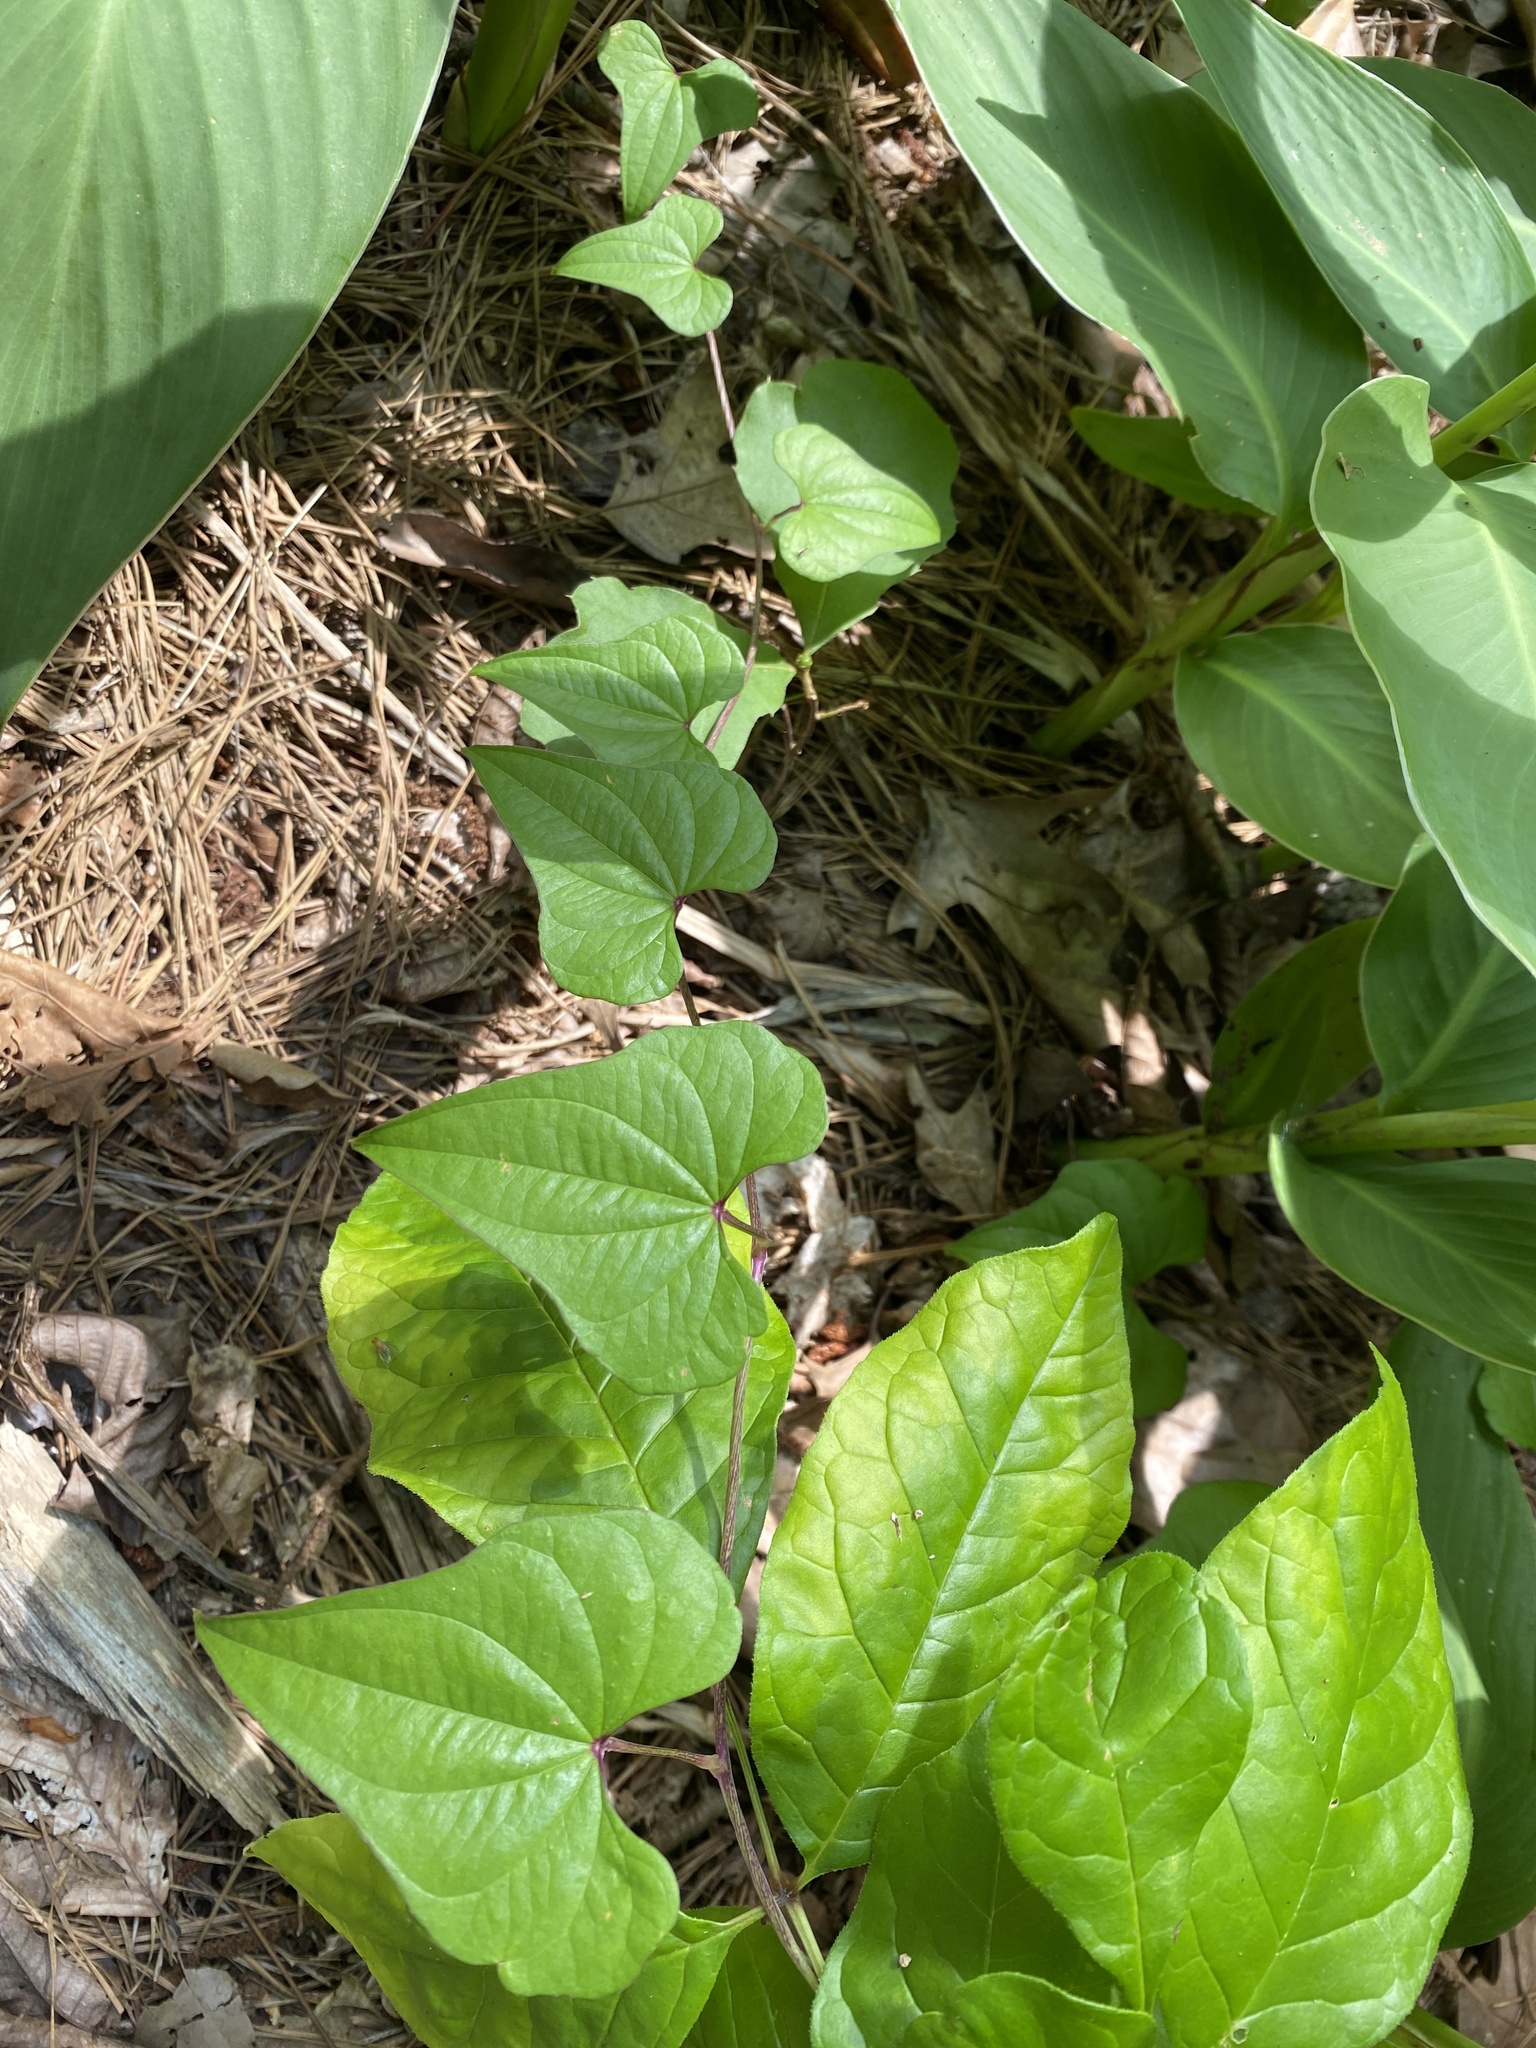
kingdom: Plantae
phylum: Tracheophyta
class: Liliopsida
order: Dioscoreales
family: Dioscoreaceae
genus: Dioscorea
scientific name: Dioscorea polystachya
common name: Chinese yam
